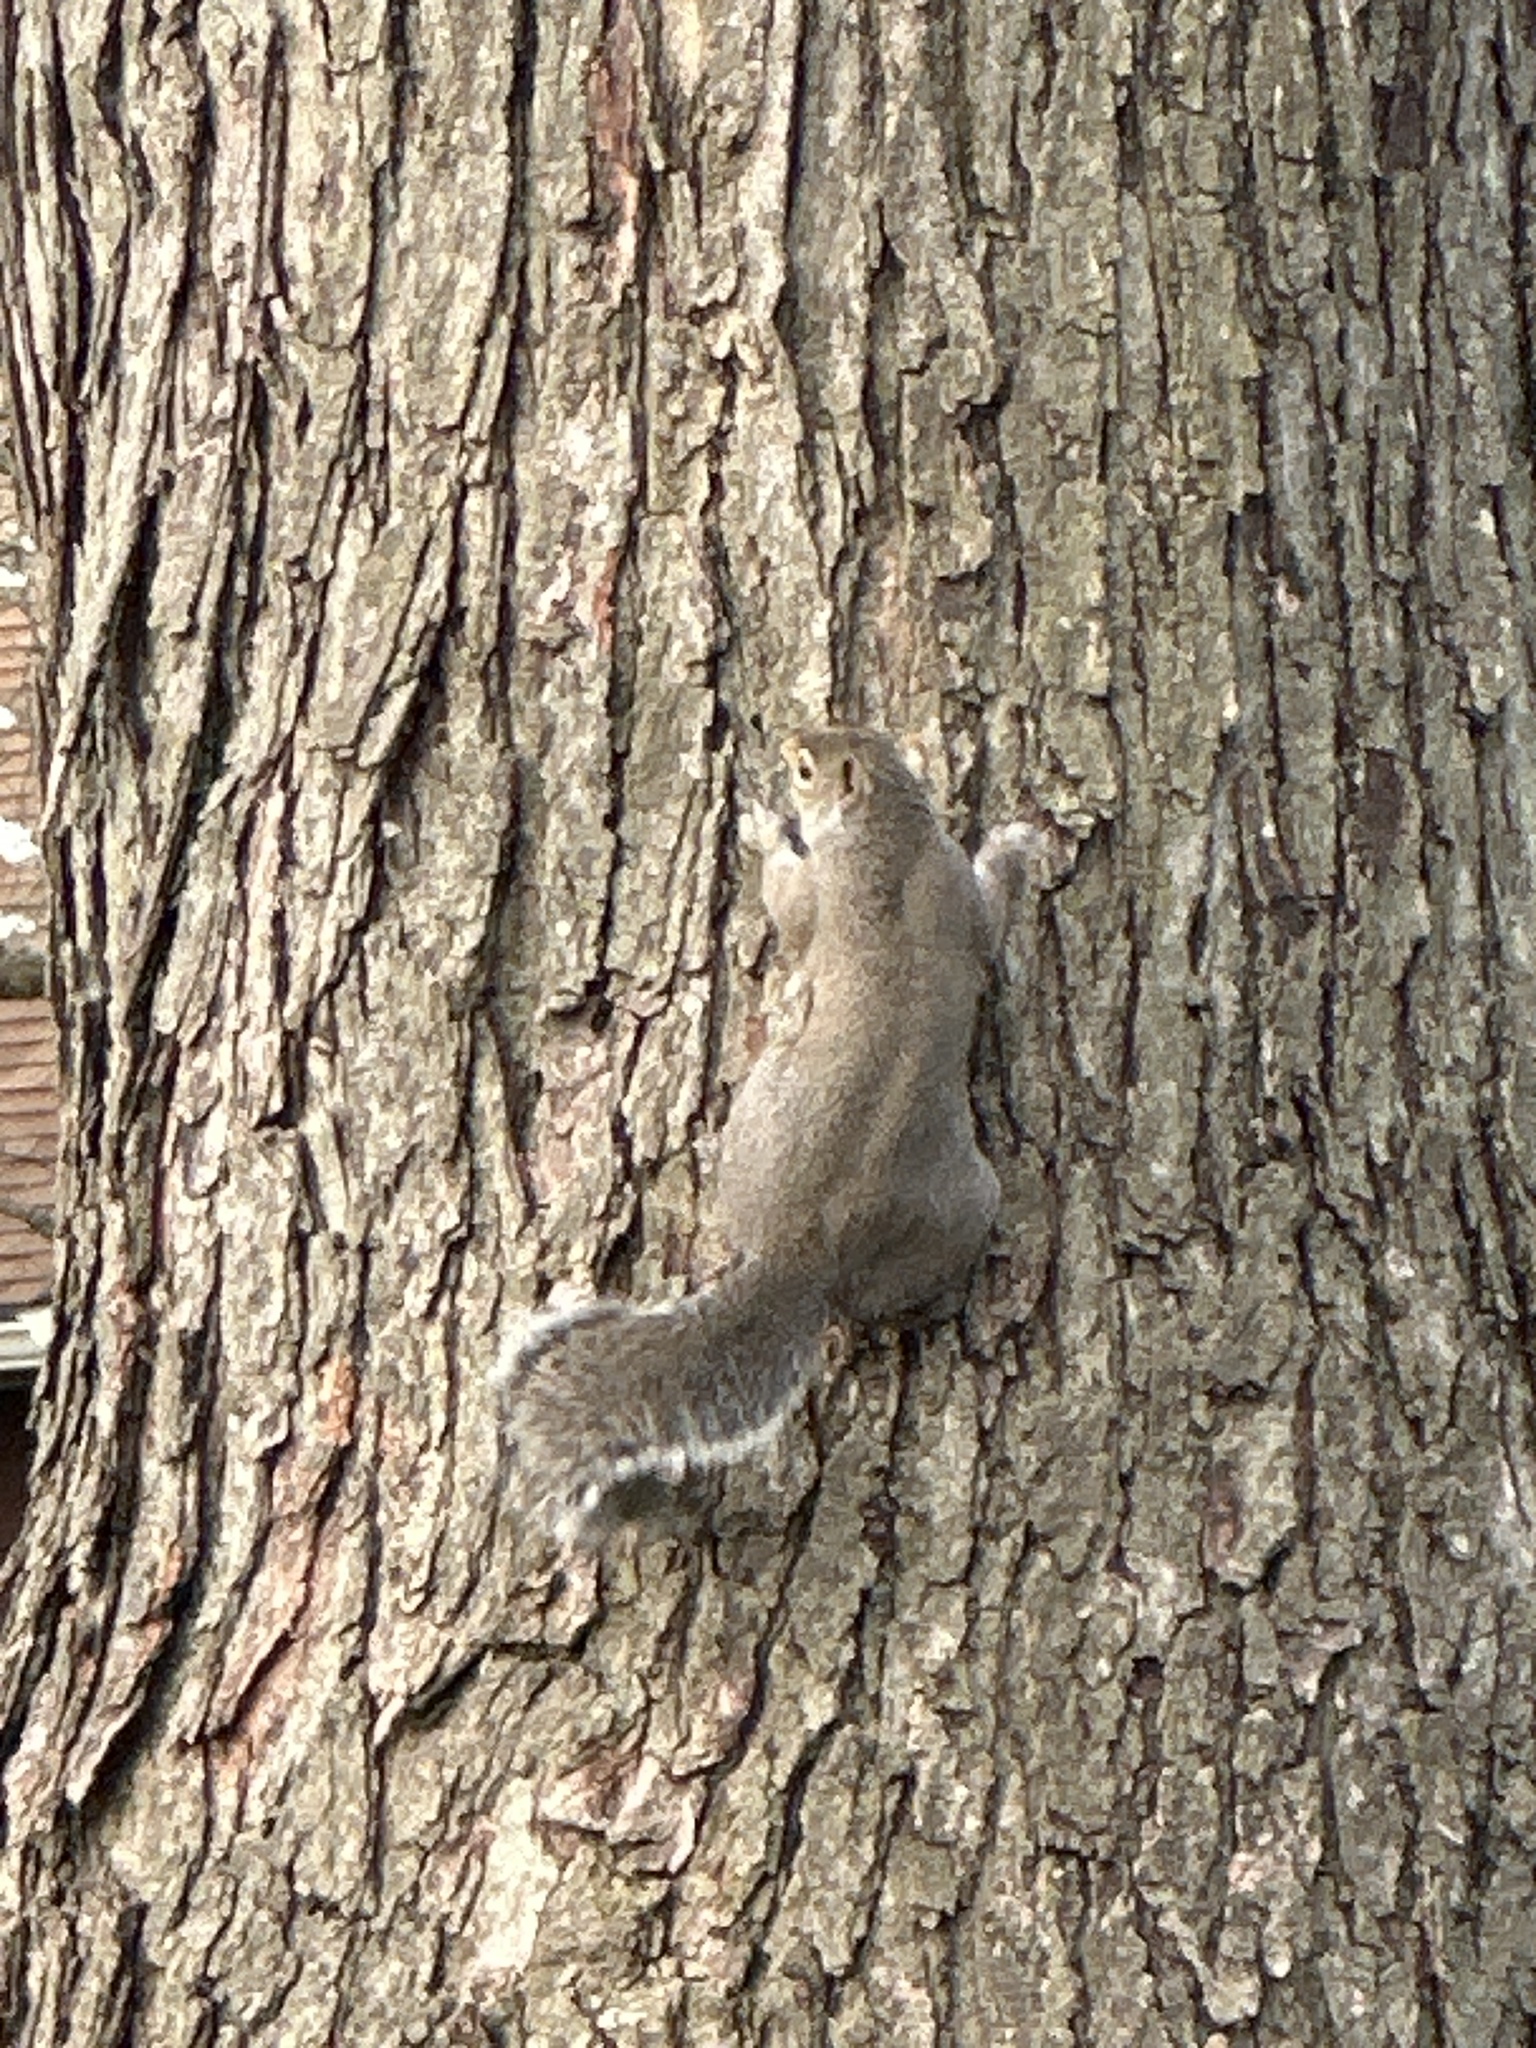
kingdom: Animalia
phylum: Chordata
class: Mammalia
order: Rodentia
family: Sciuridae
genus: Sciurus
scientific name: Sciurus carolinensis
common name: Eastern gray squirrel
